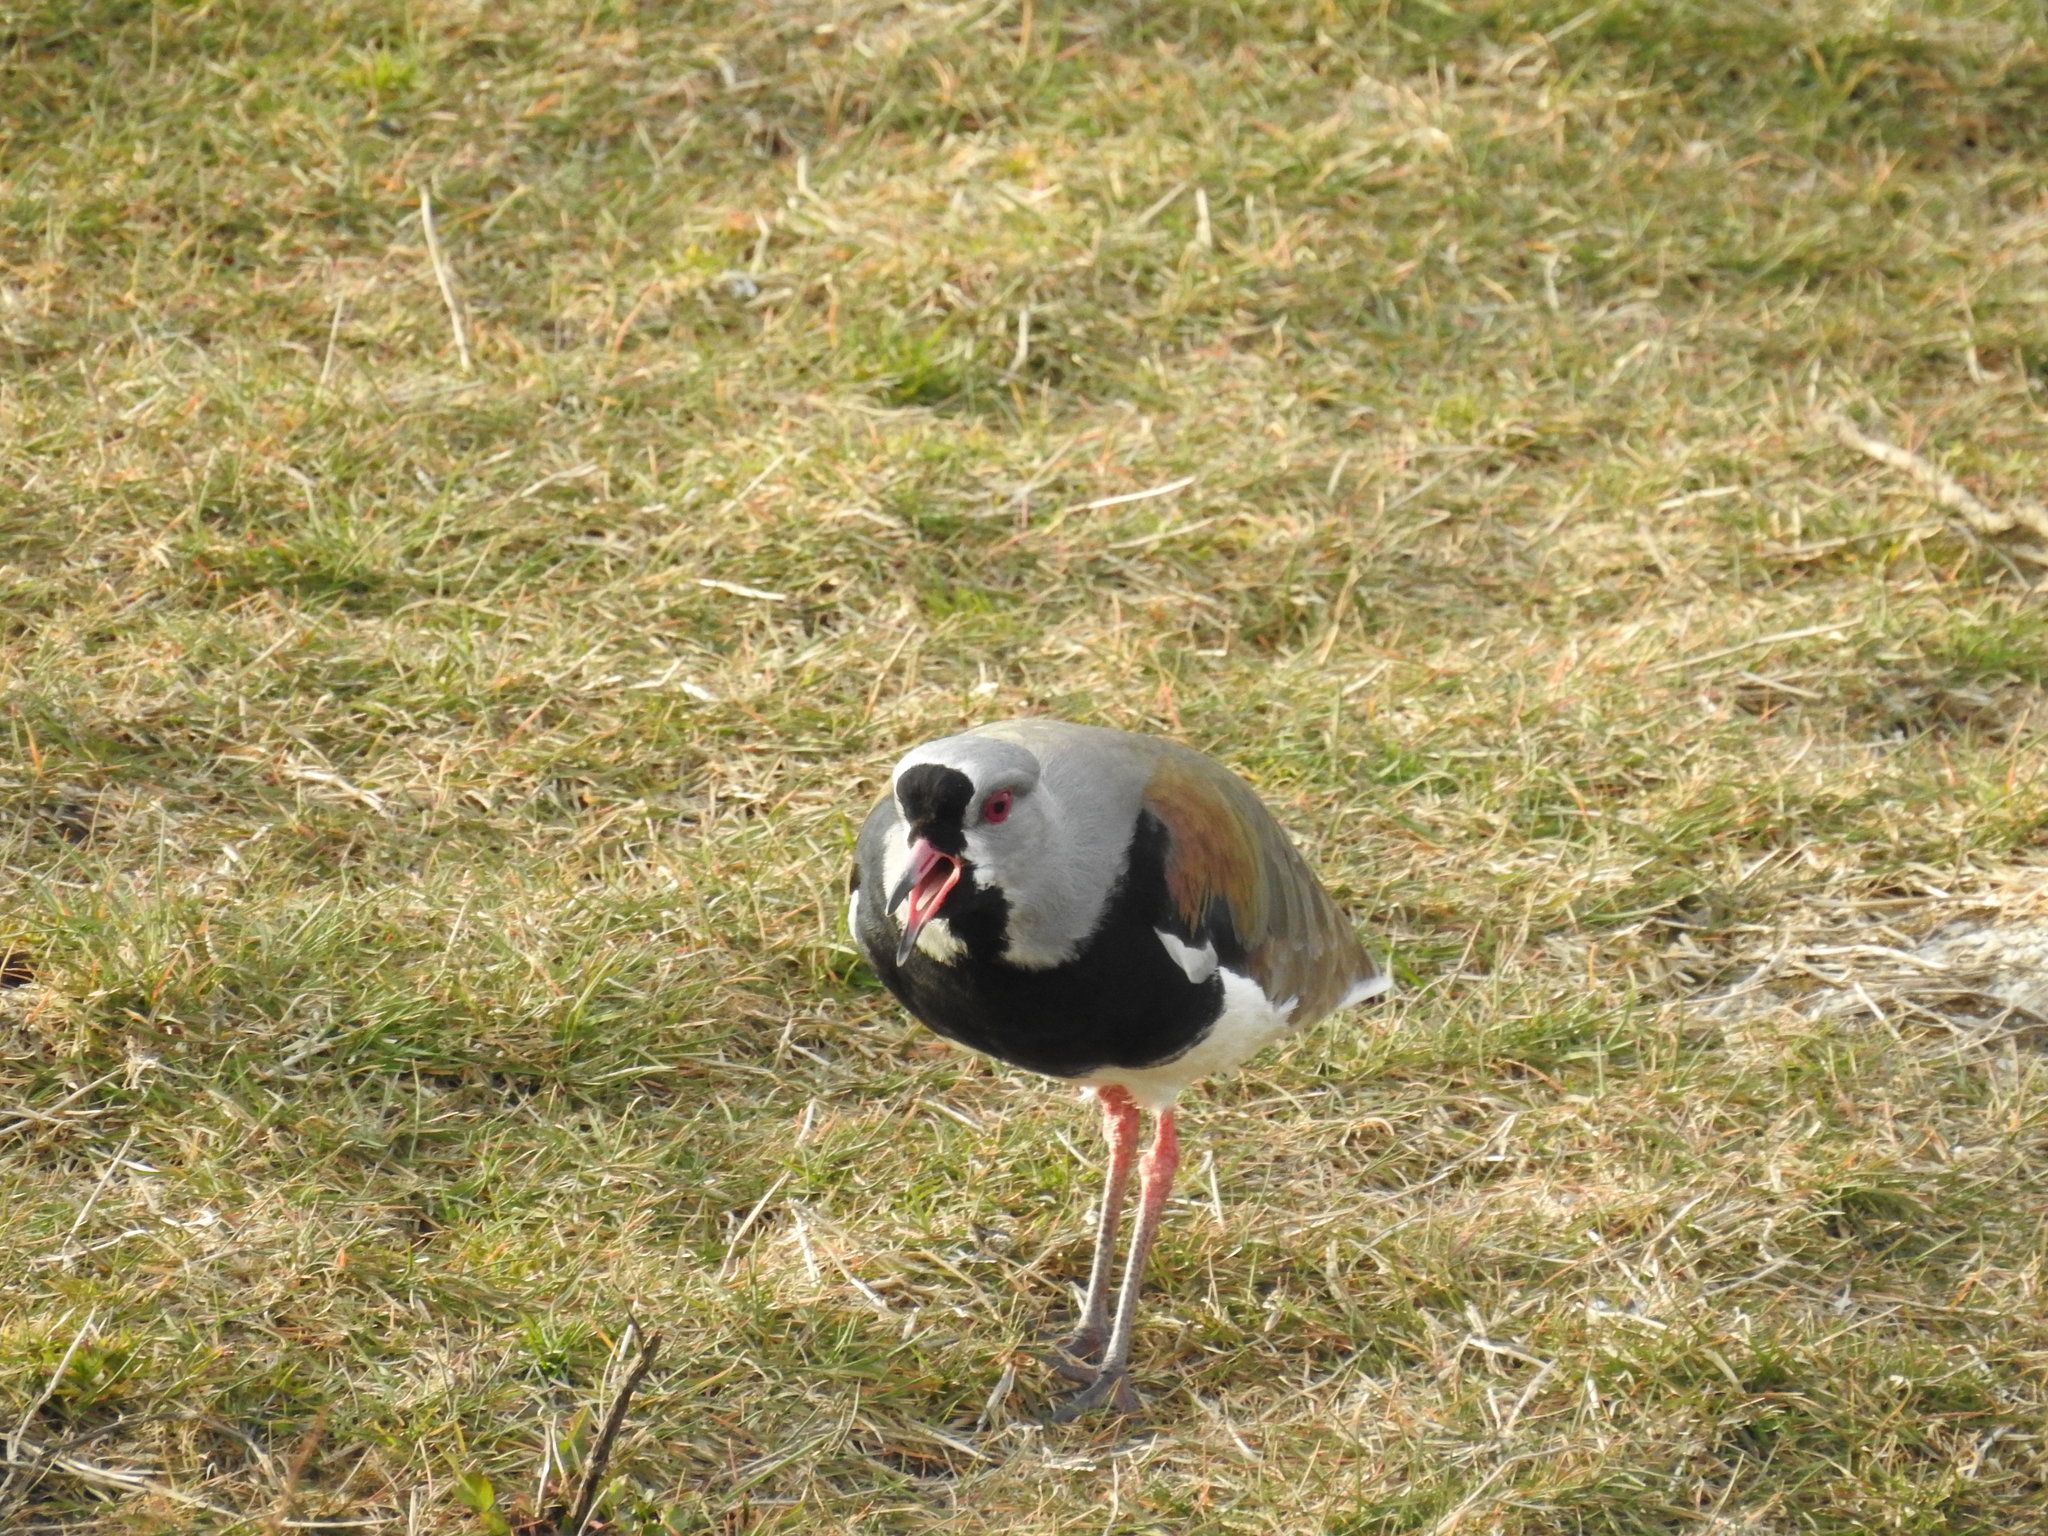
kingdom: Animalia
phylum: Chordata
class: Aves
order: Charadriiformes
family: Charadriidae
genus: Vanellus
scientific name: Vanellus chilensis
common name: Southern lapwing
